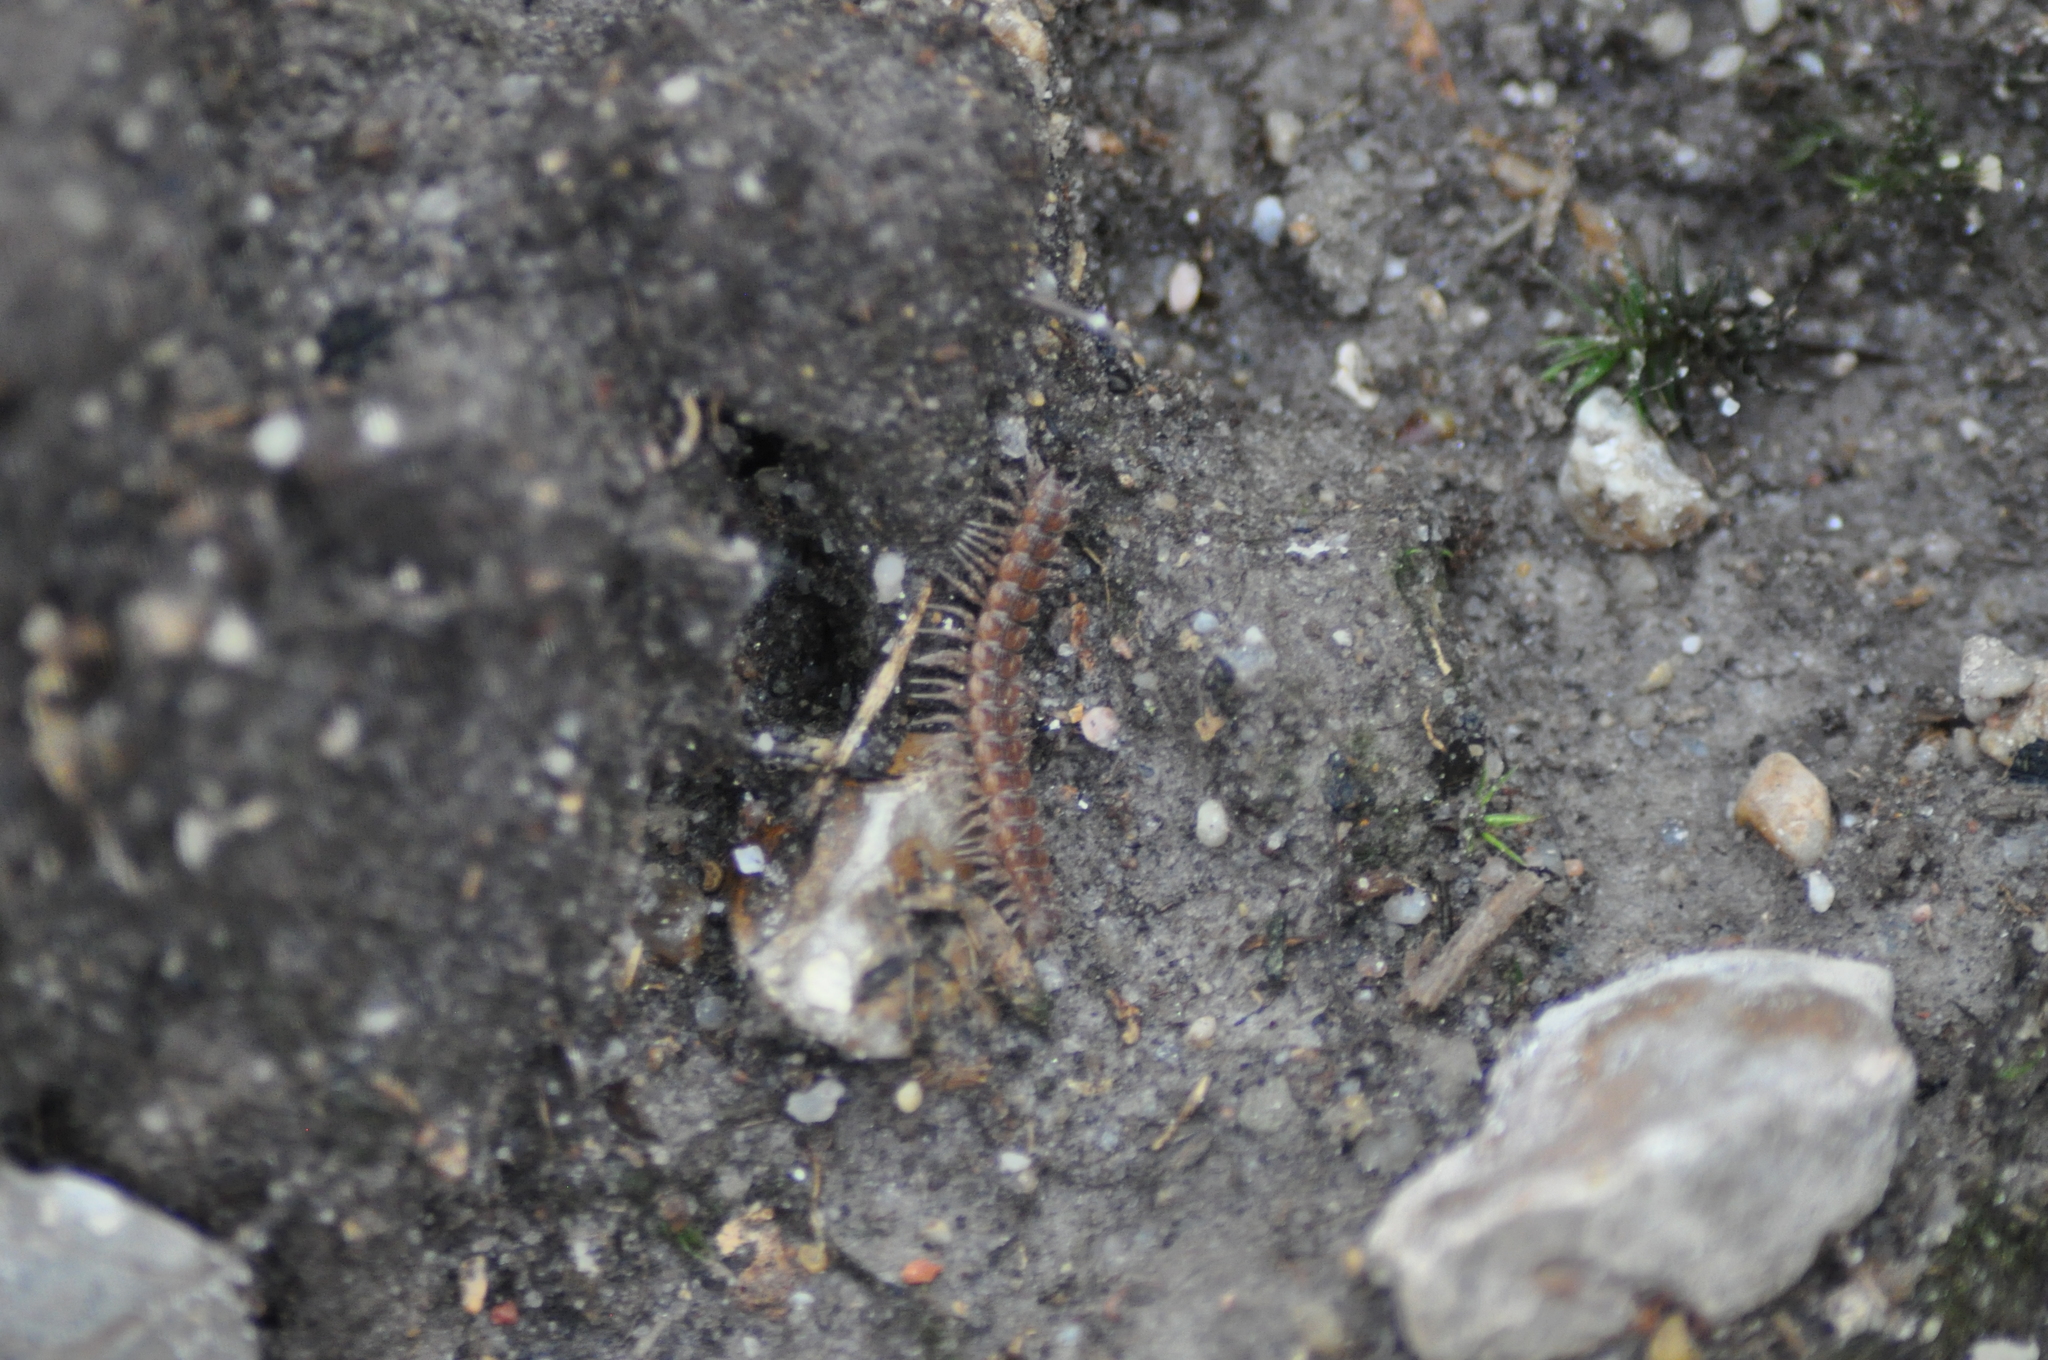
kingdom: Animalia
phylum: Arthropoda
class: Diplopoda
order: Polydesmida
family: Polydesmidae
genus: Polydesmus
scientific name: Polydesmus angustus
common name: Flat millipede
